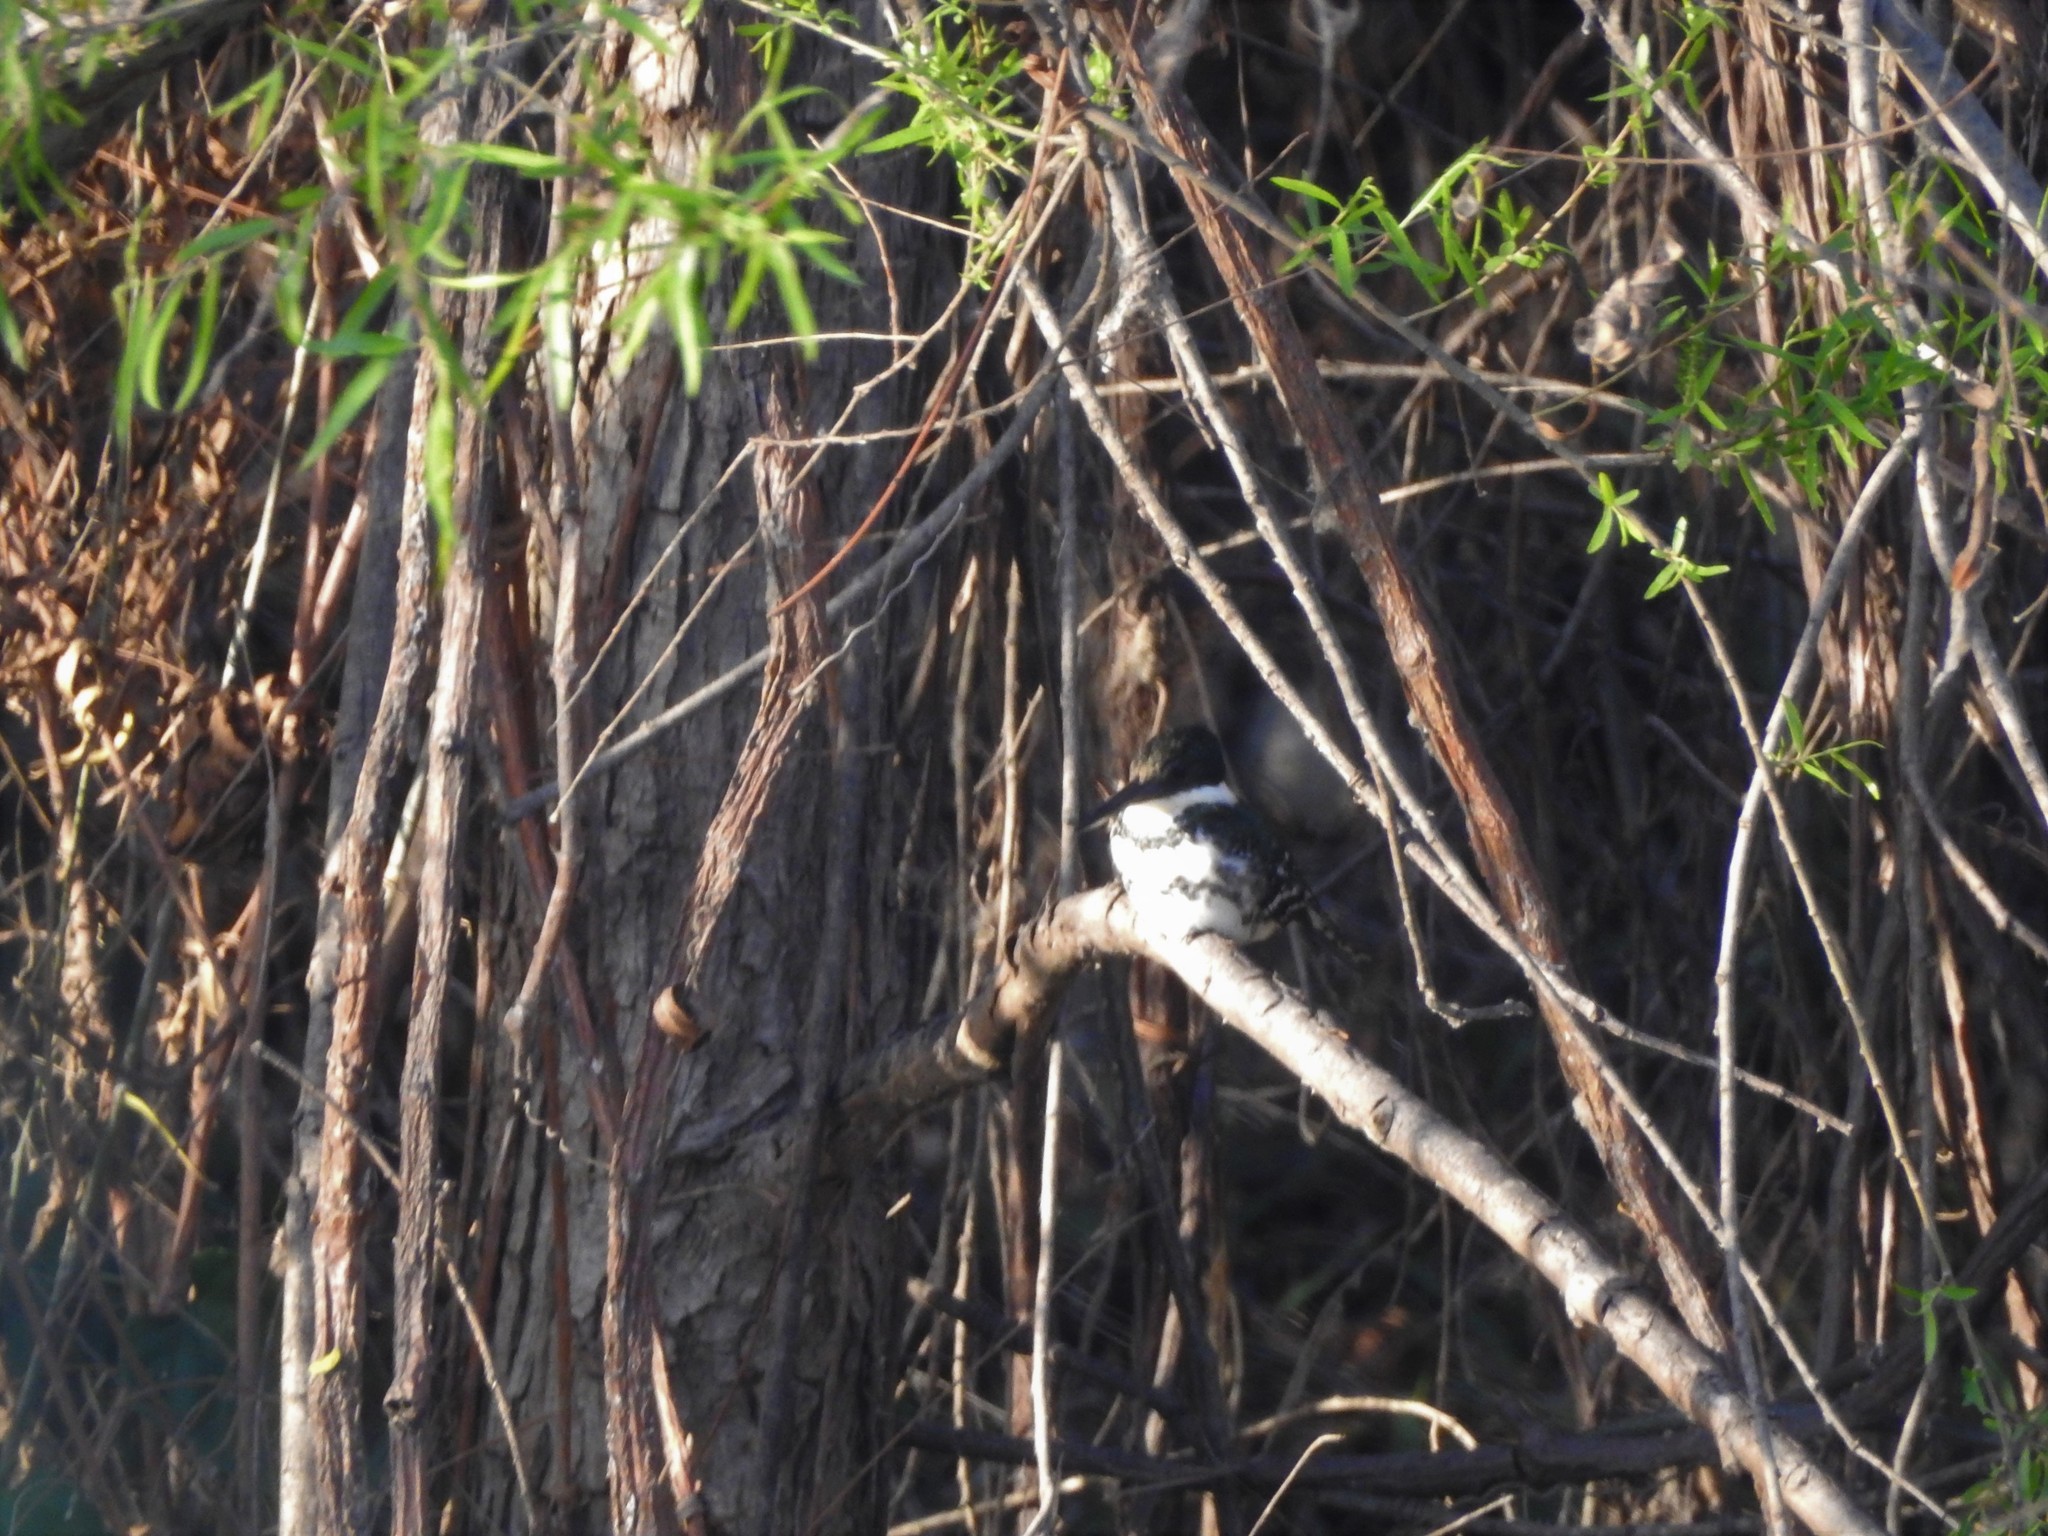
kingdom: Animalia
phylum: Chordata
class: Aves
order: Coraciiformes
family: Alcedinidae
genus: Chloroceryle
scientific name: Chloroceryle americana
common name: Green kingfisher
